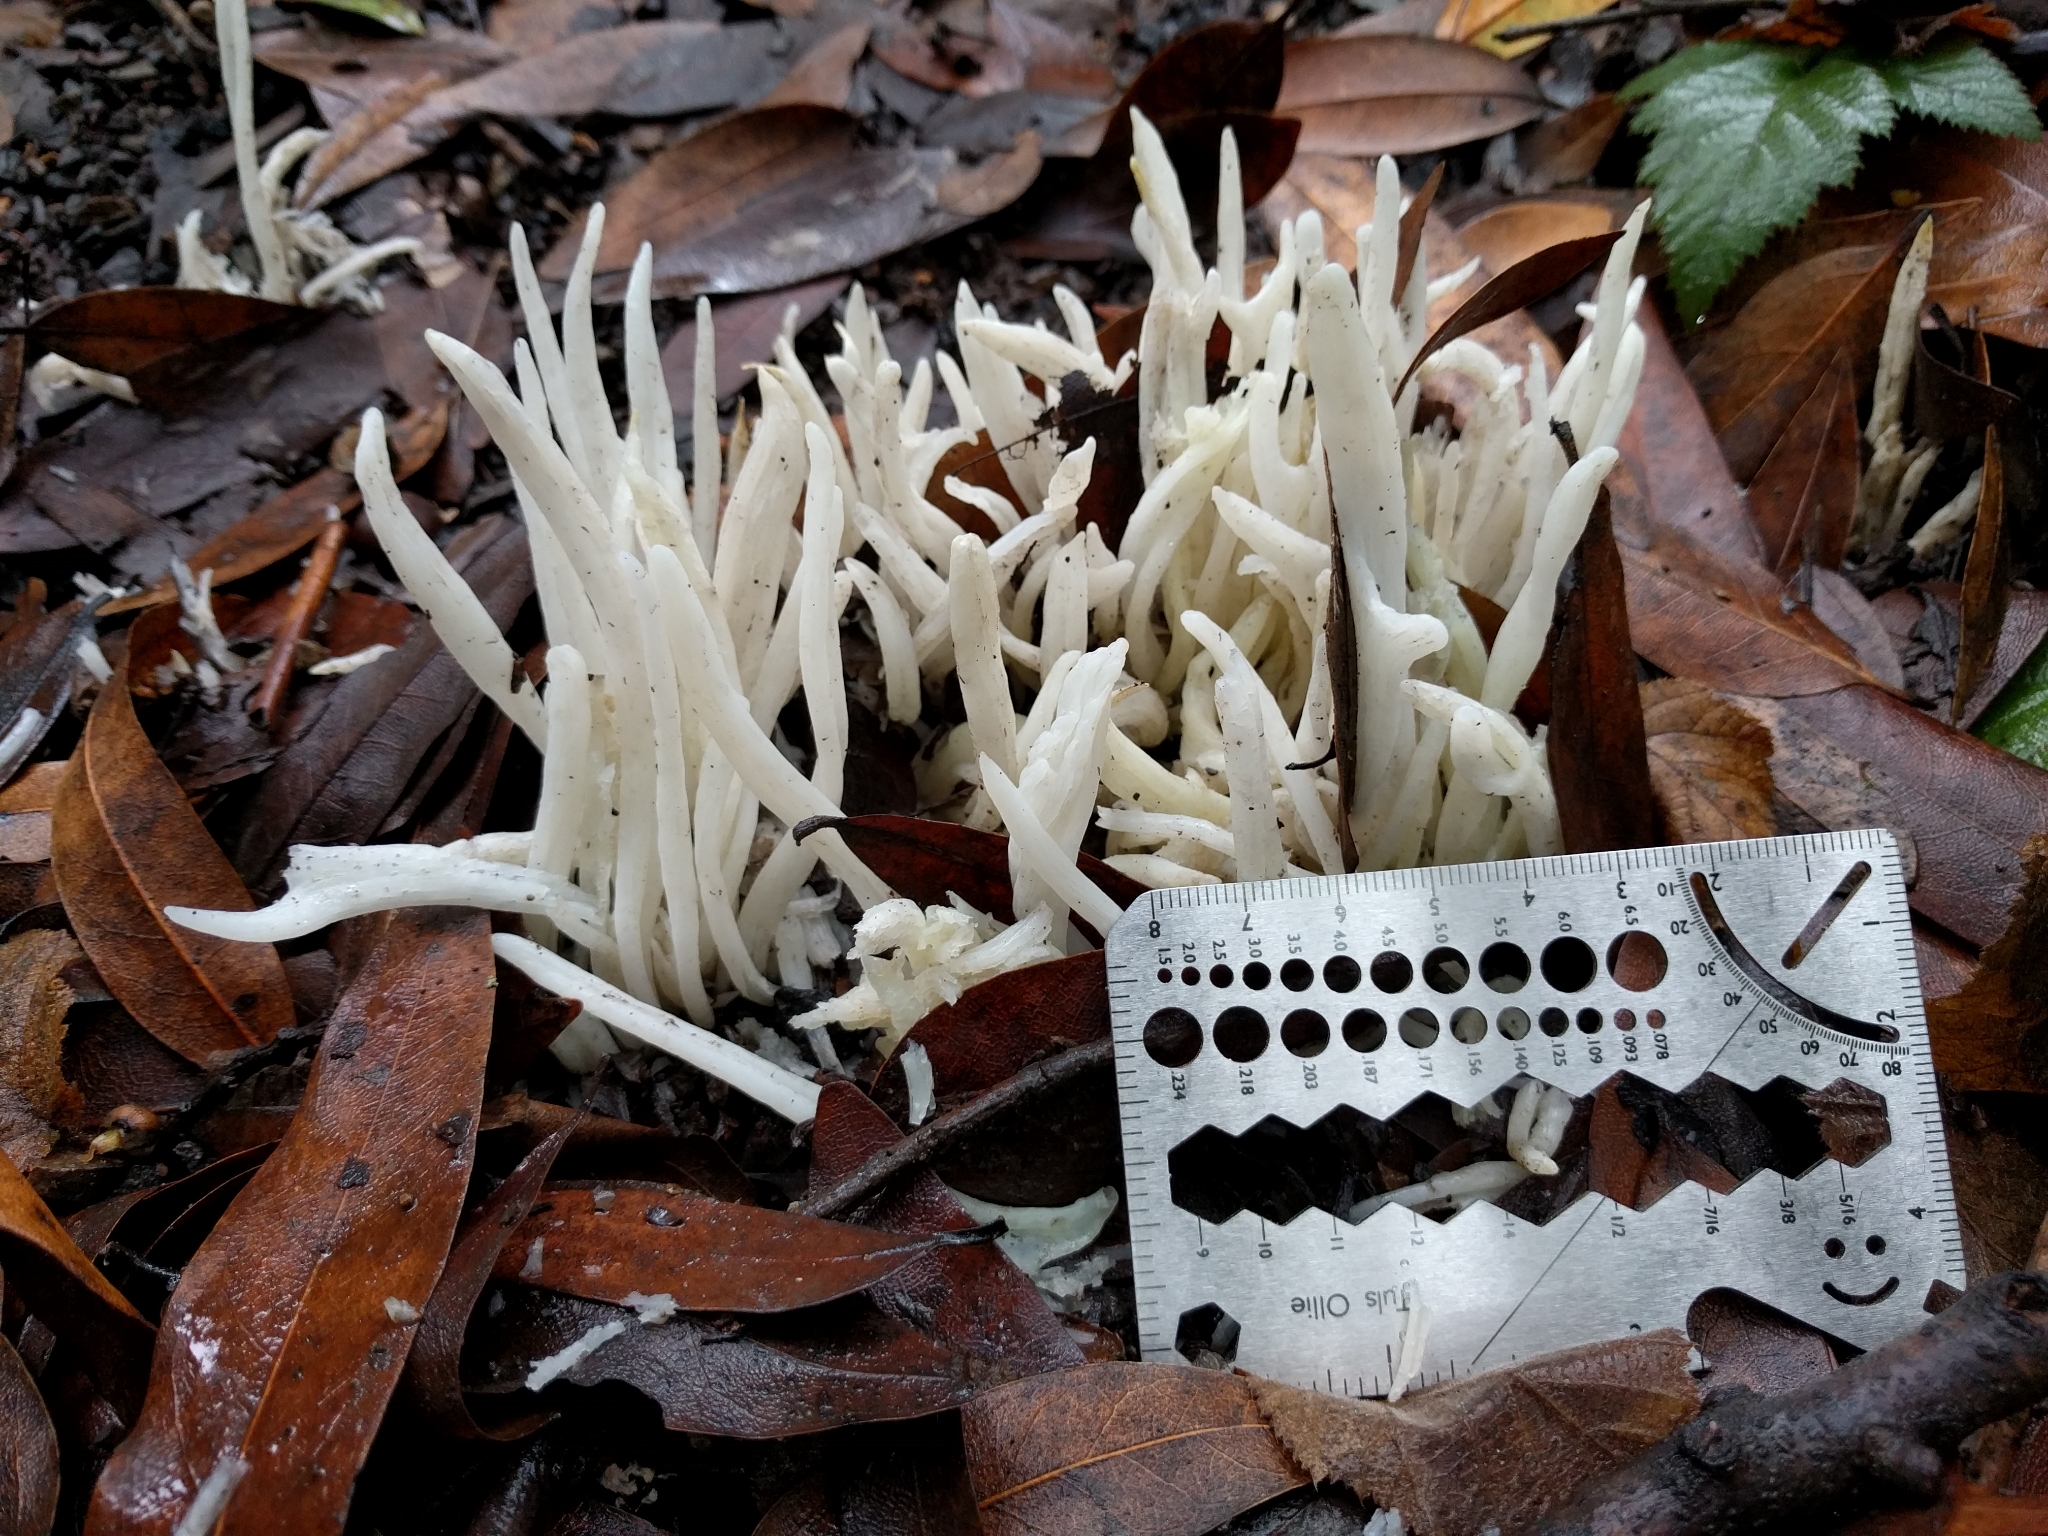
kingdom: Fungi
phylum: Basidiomycota
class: Agaricomycetes
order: Agaricales
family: Clavariaceae
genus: Clavaria
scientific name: Clavaria fragilis
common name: White spindles
